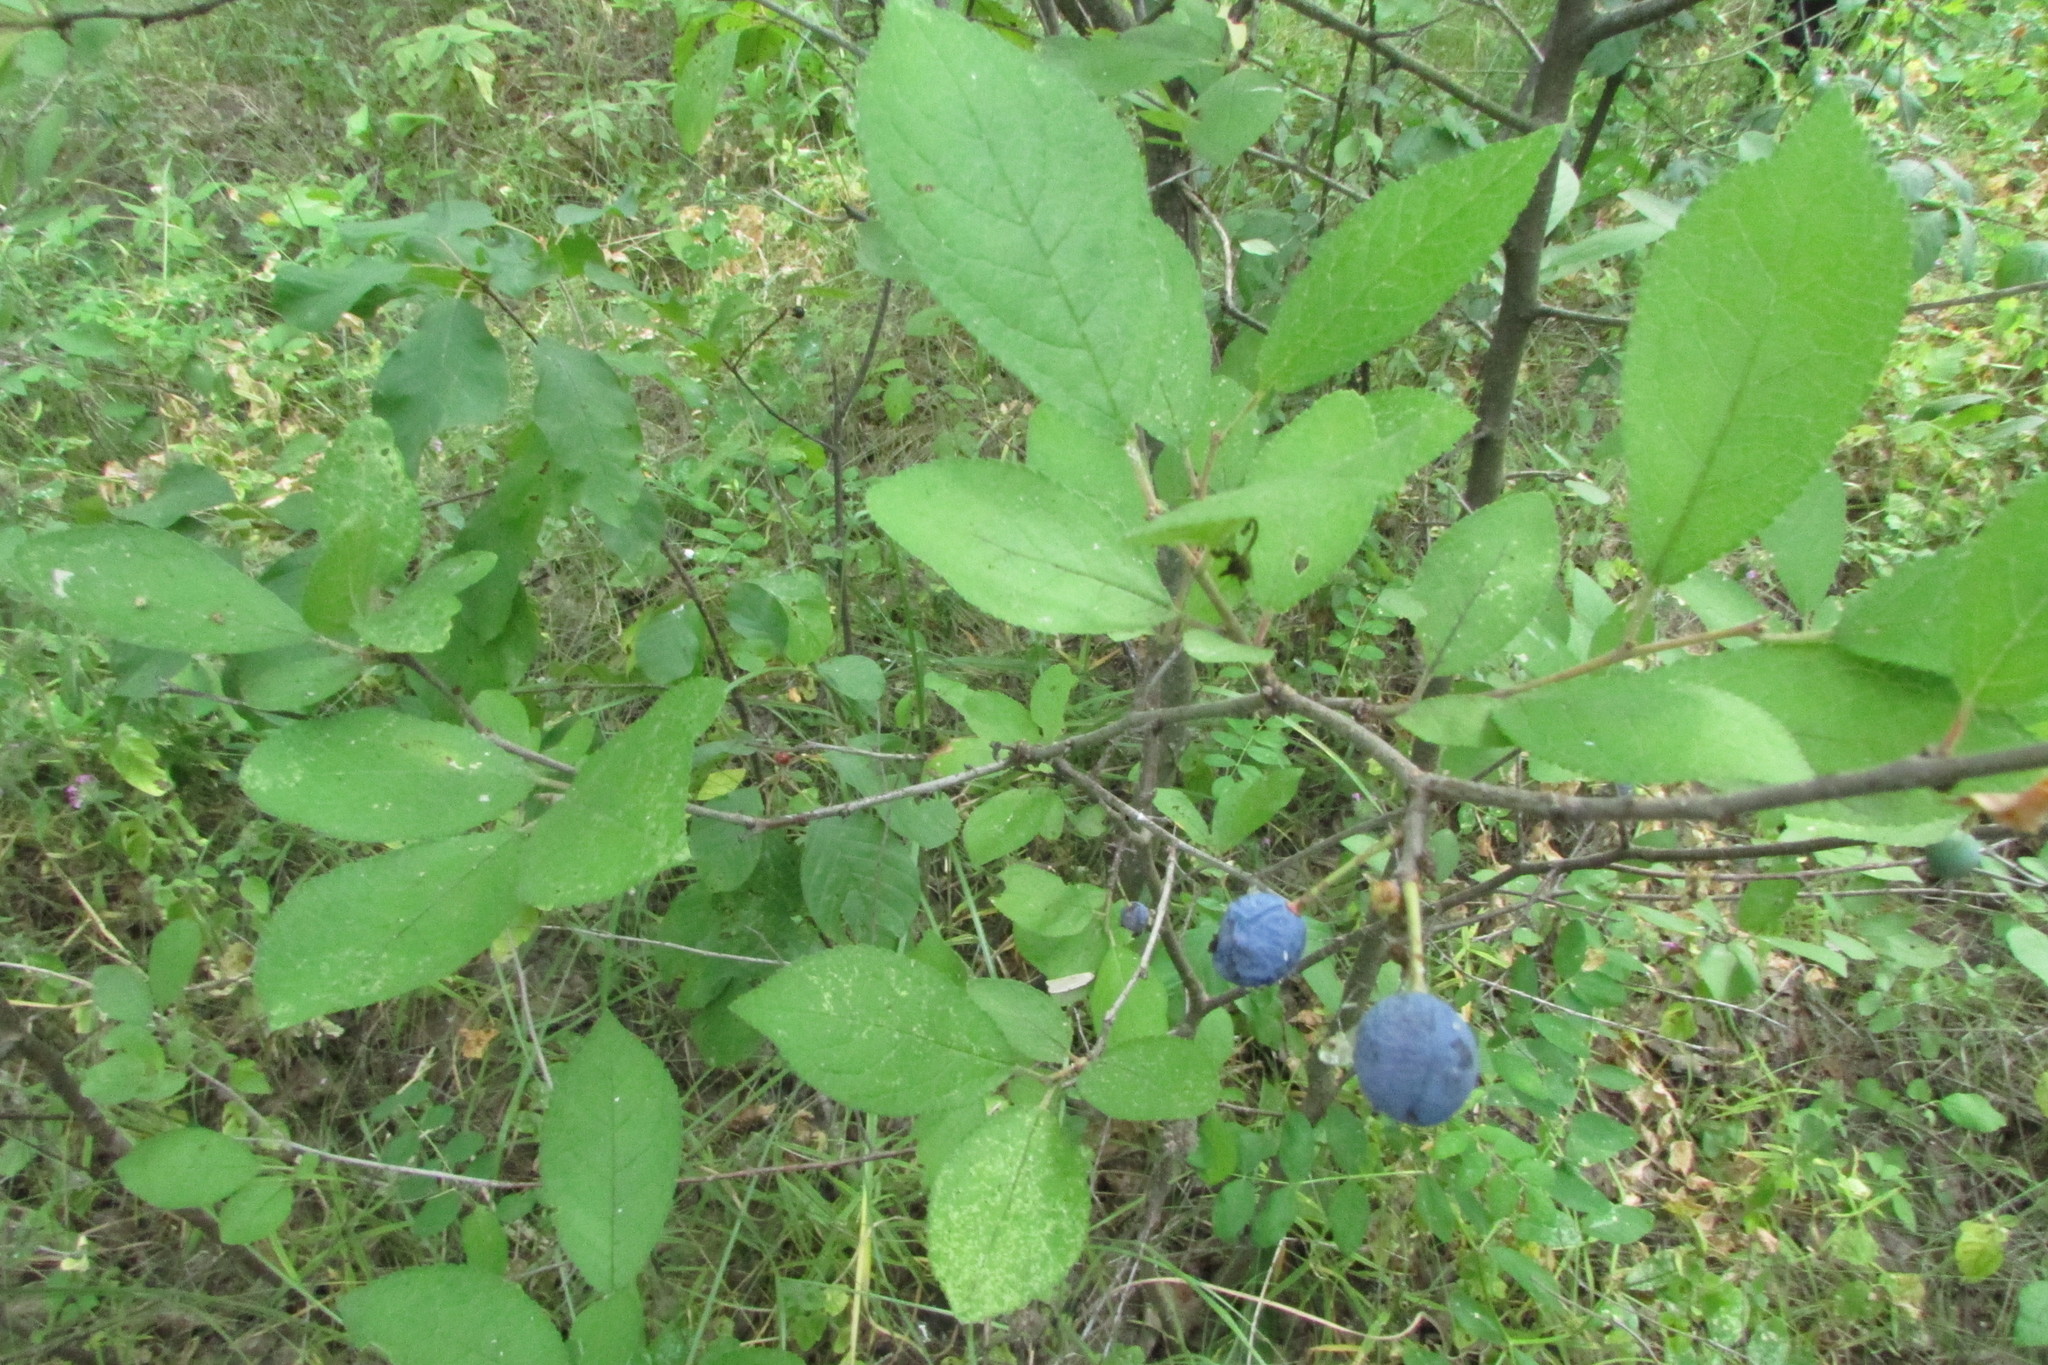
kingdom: Plantae
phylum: Tracheophyta
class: Magnoliopsida
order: Rosales
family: Rosaceae
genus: Prunus
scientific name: Prunus spinosa
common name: Blackthorn
